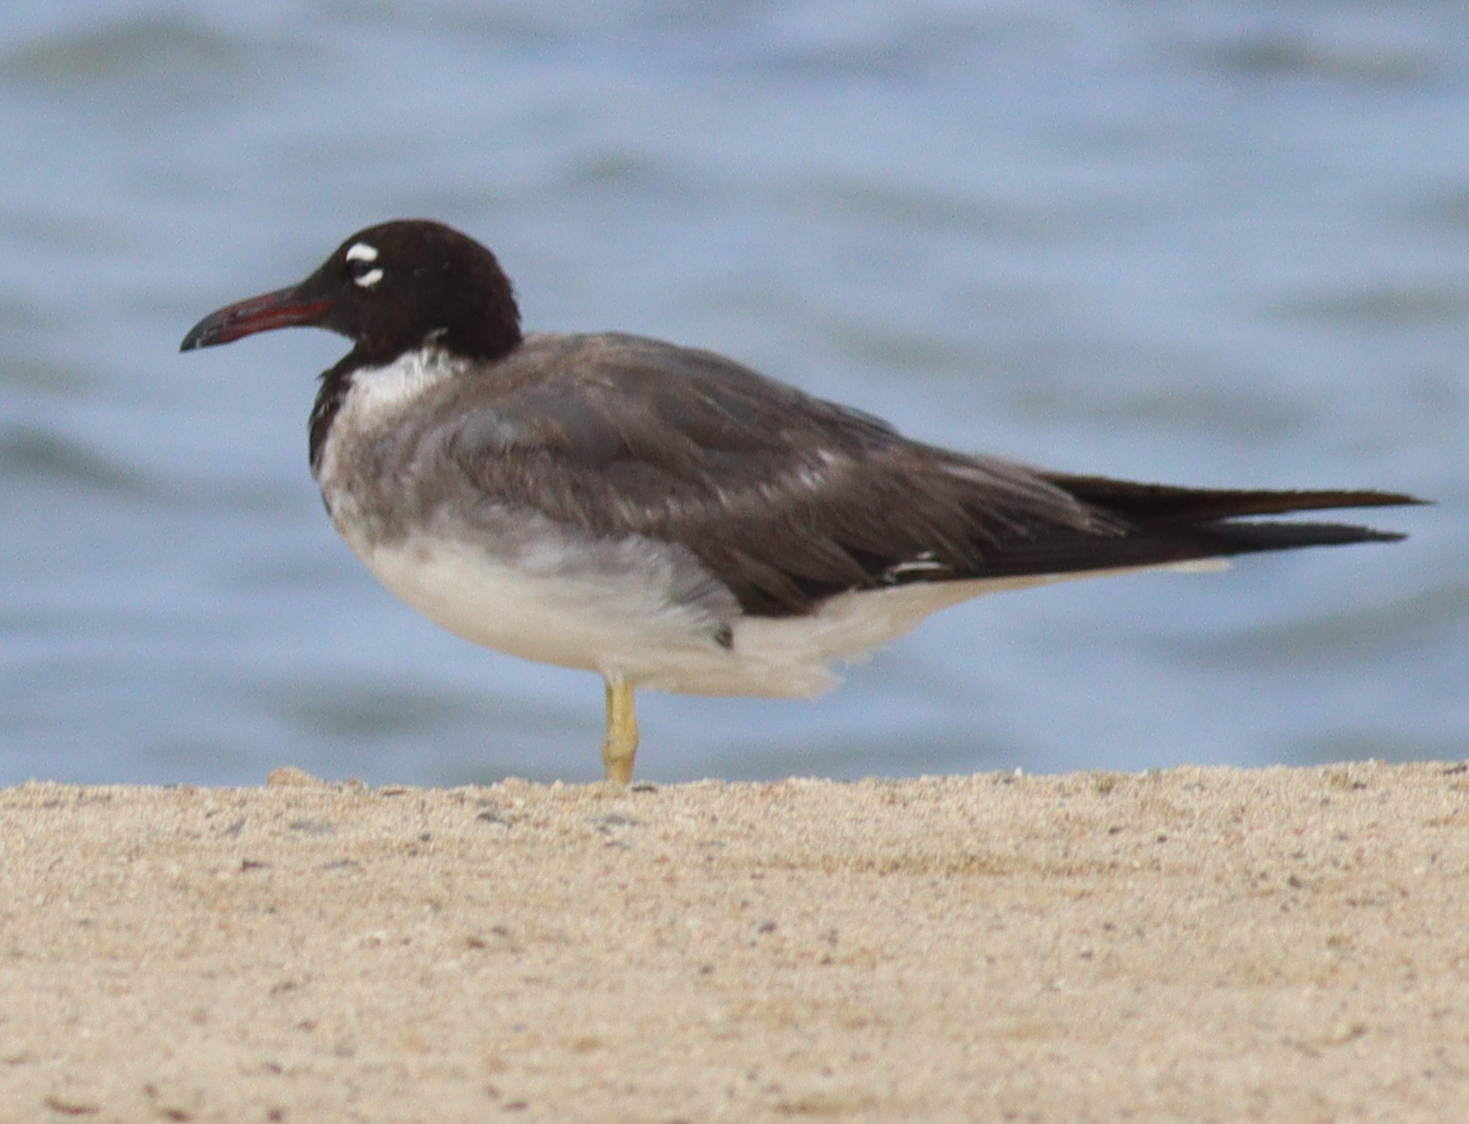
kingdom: Animalia
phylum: Chordata
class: Aves
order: Charadriiformes
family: Laridae
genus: Ichthyaetus
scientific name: Ichthyaetus leucophthalmus
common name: White-eyed gull
